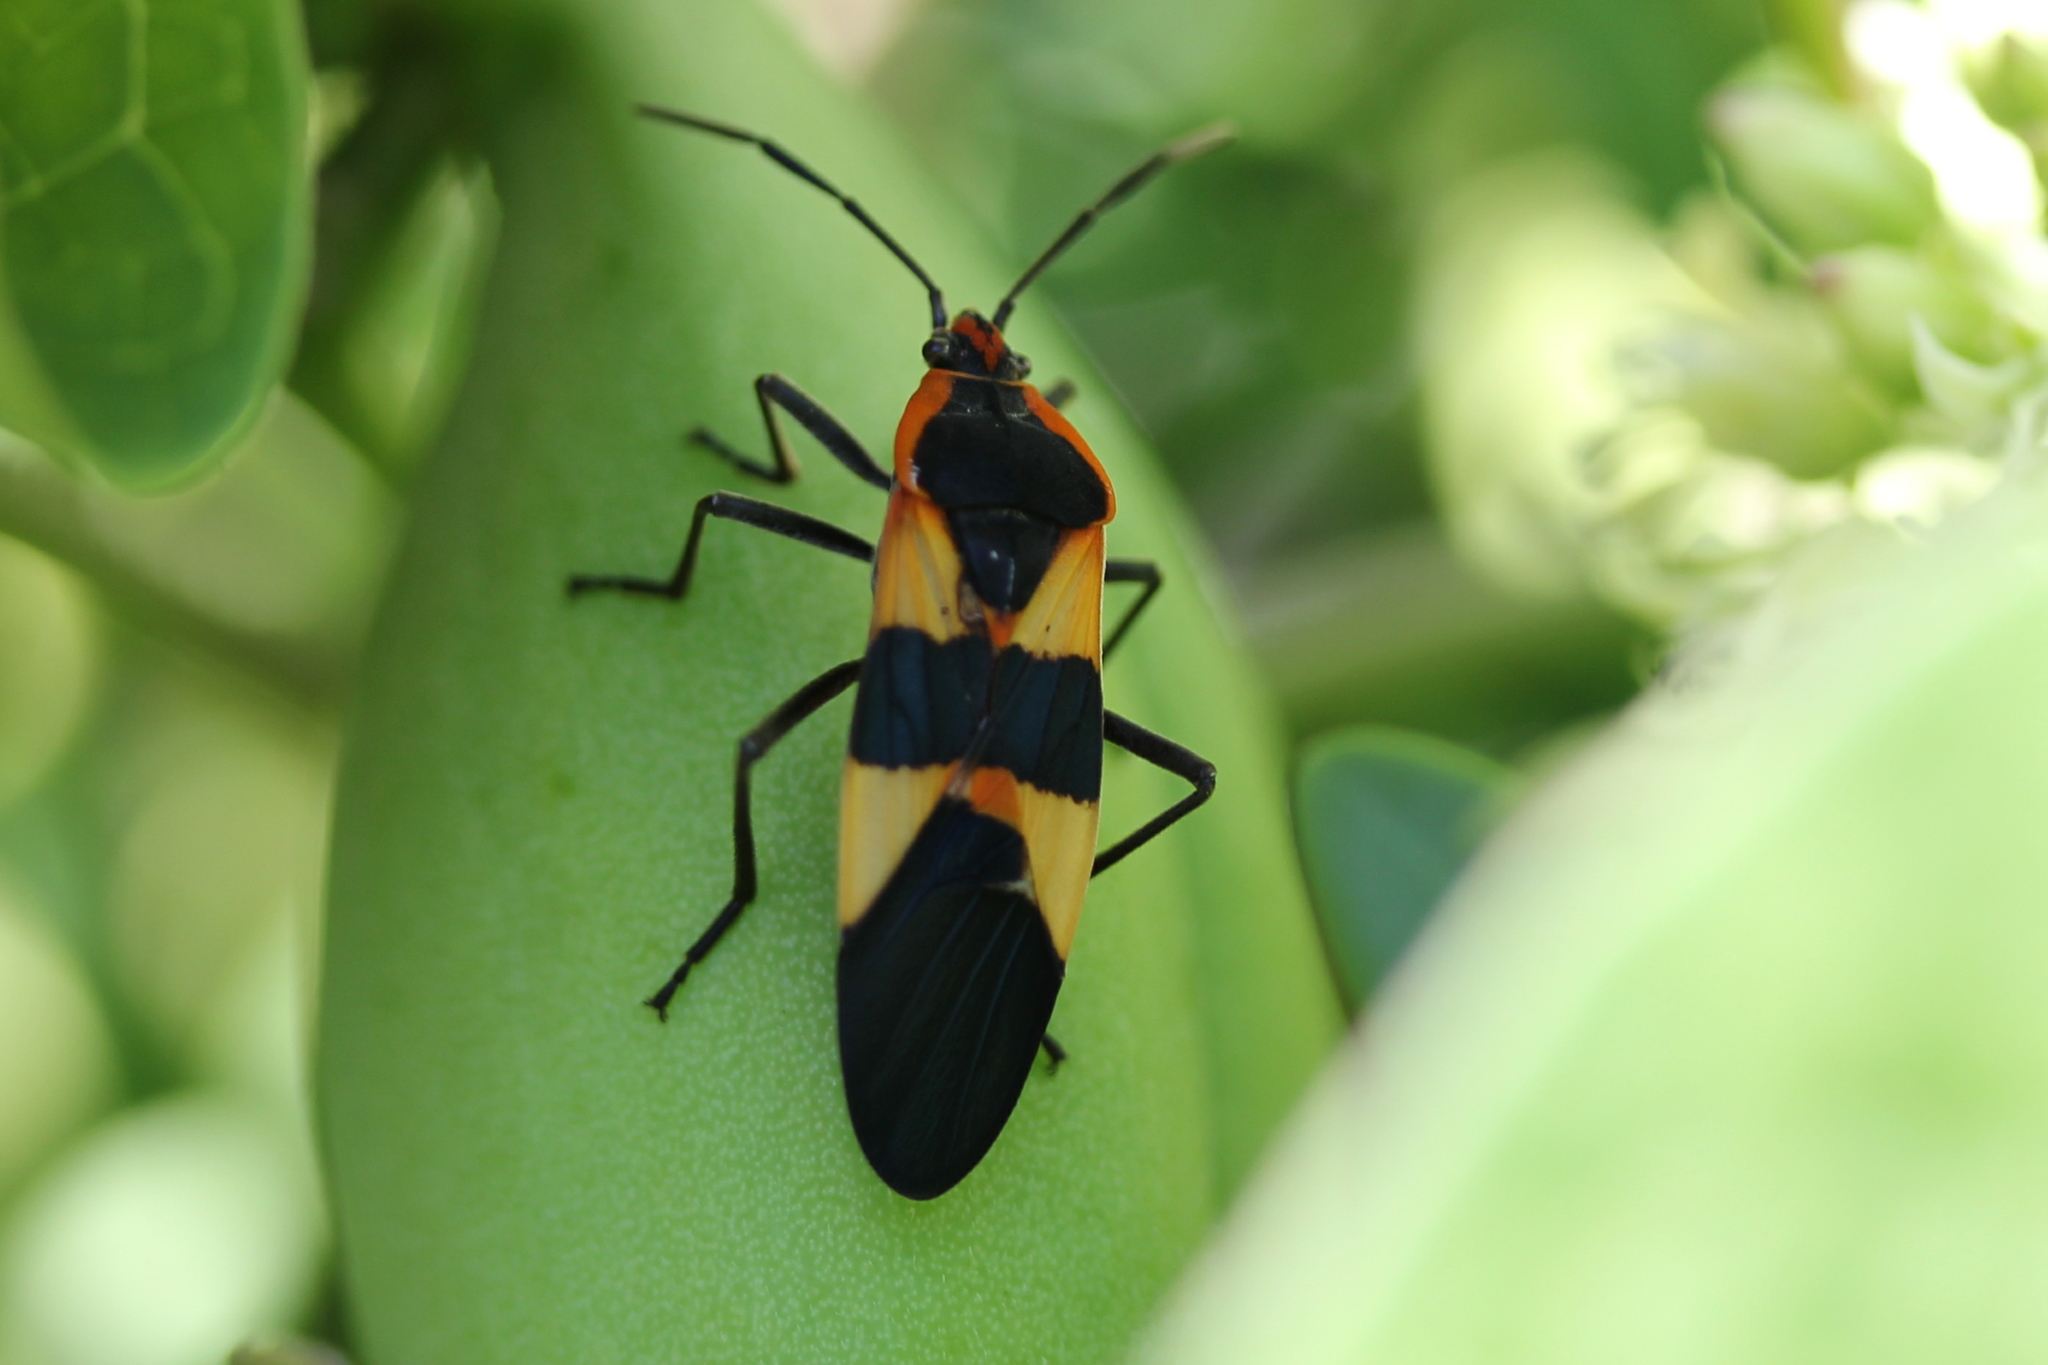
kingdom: Animalia
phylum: Arthropoda
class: Insecta
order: Hemiptera
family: Lygaeidae
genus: Oncopeltus
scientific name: Oncopeltus fasciatus
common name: Large milkweed bug
